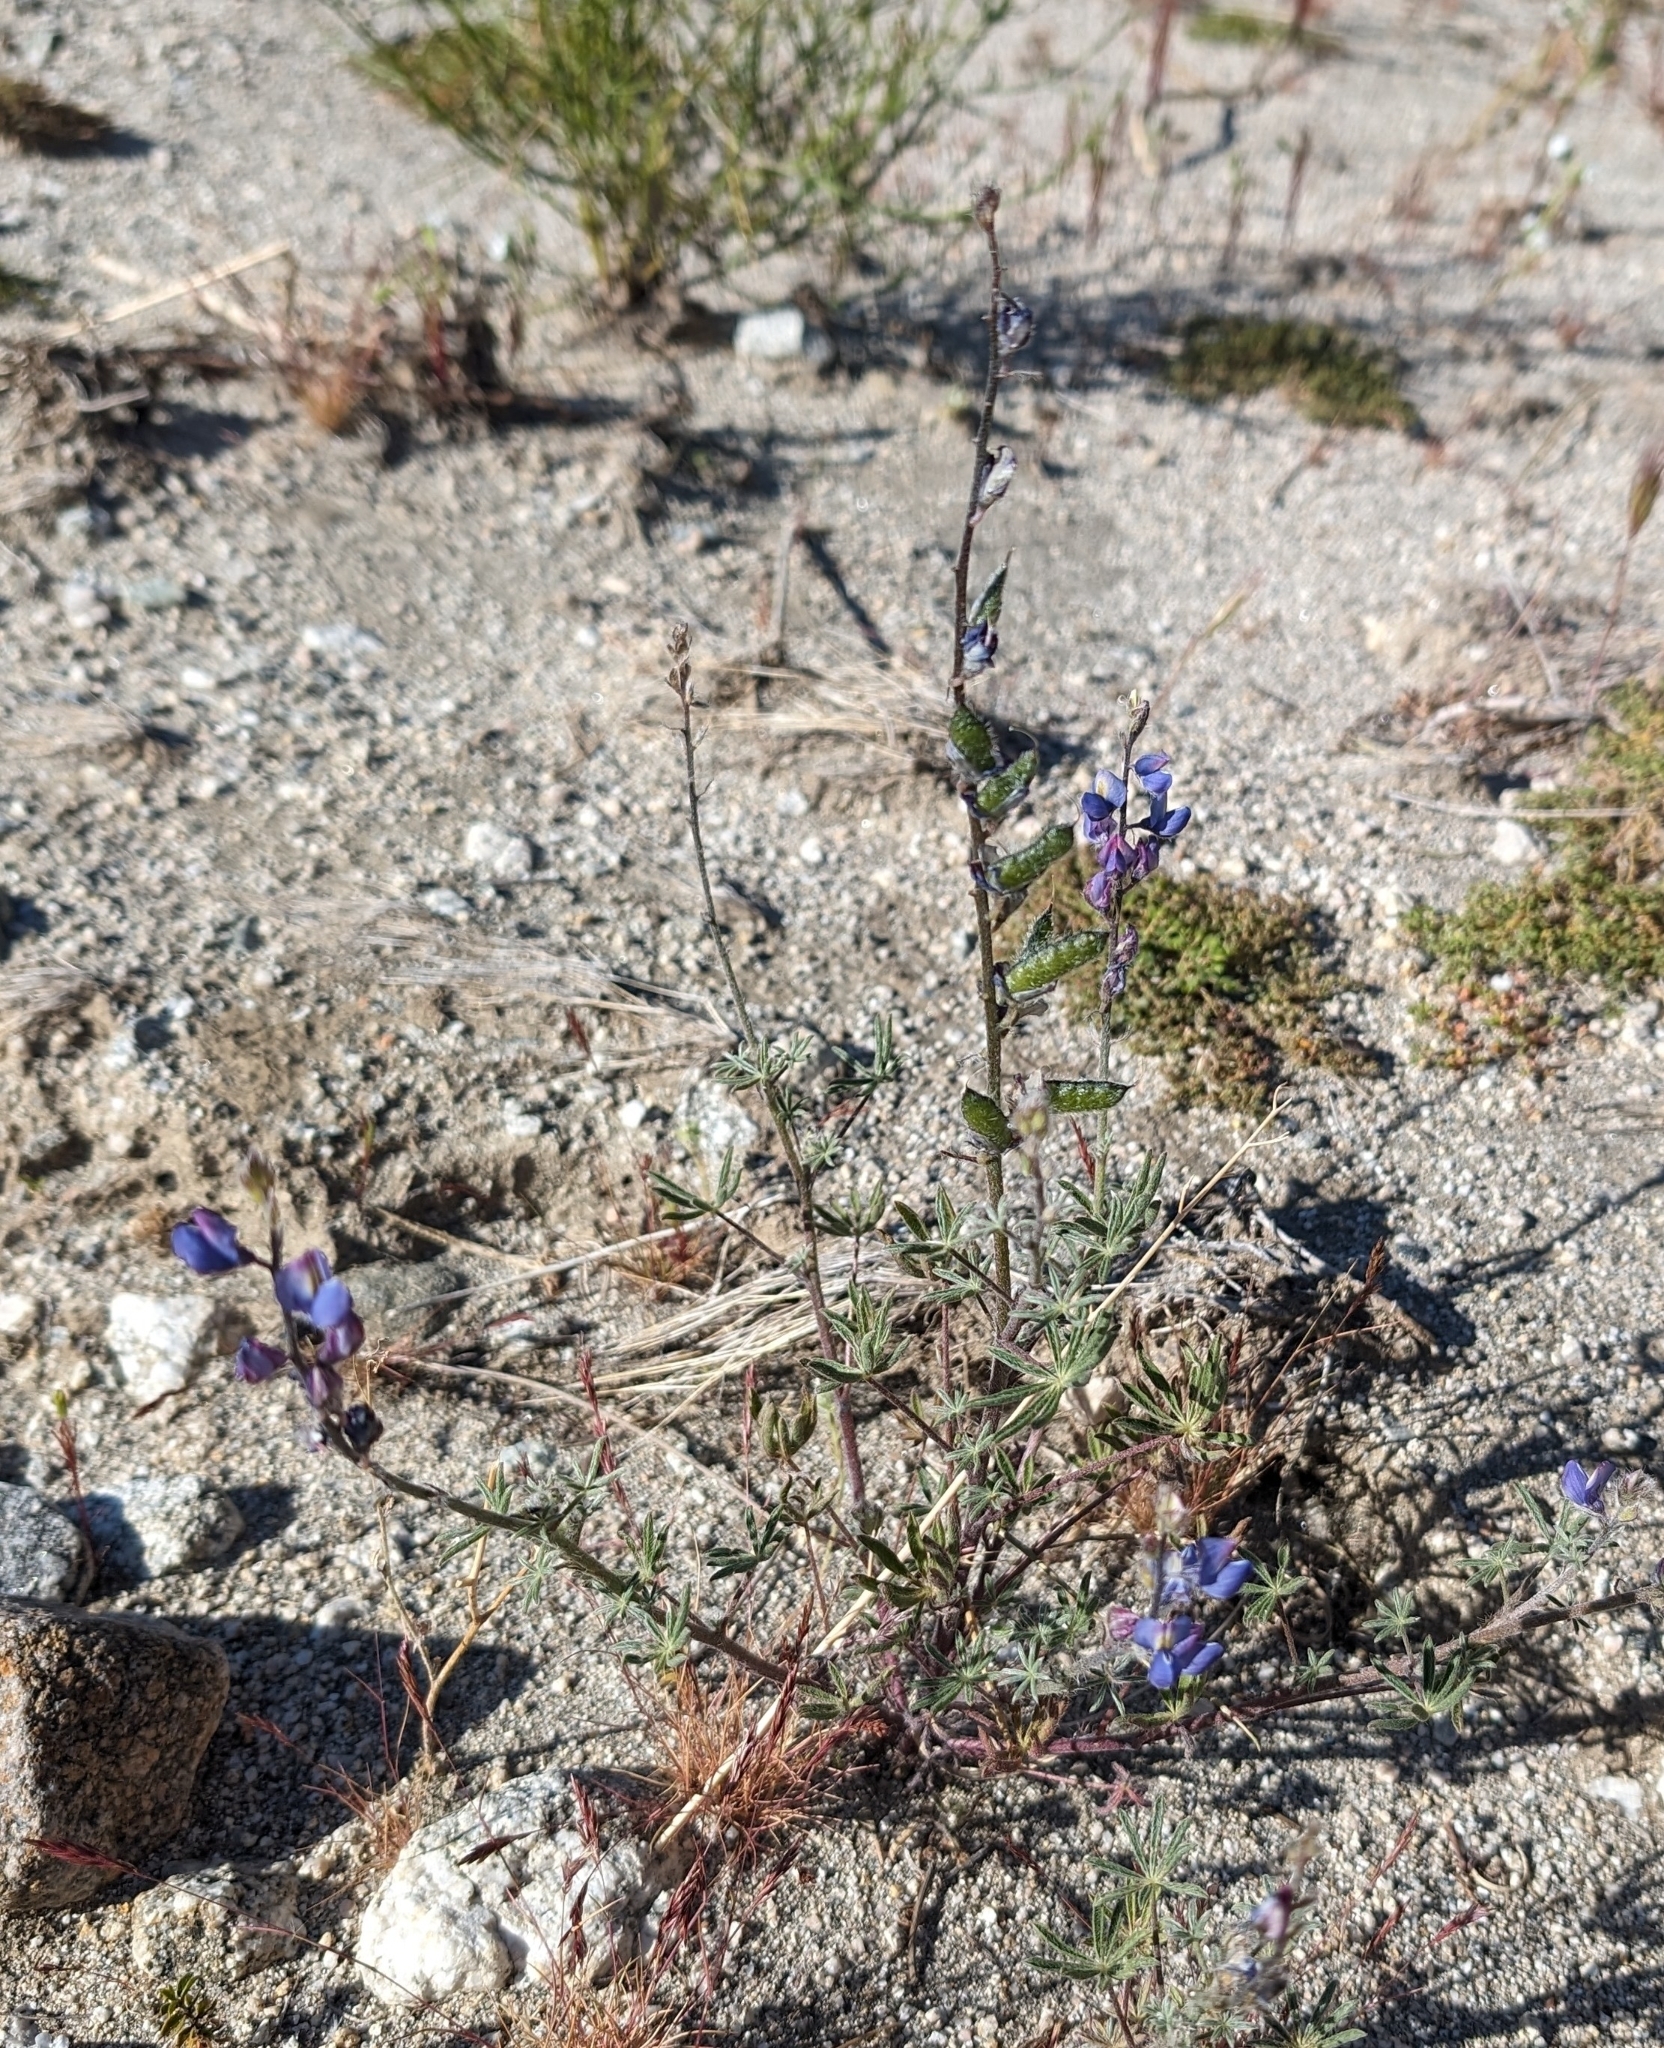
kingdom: Plantae
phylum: Tracheophyta
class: Magnoliopsida
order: Fabales
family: Fabaceae
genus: Lupinus
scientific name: Lupinus sparsiflorus
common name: Coulter's lupine
